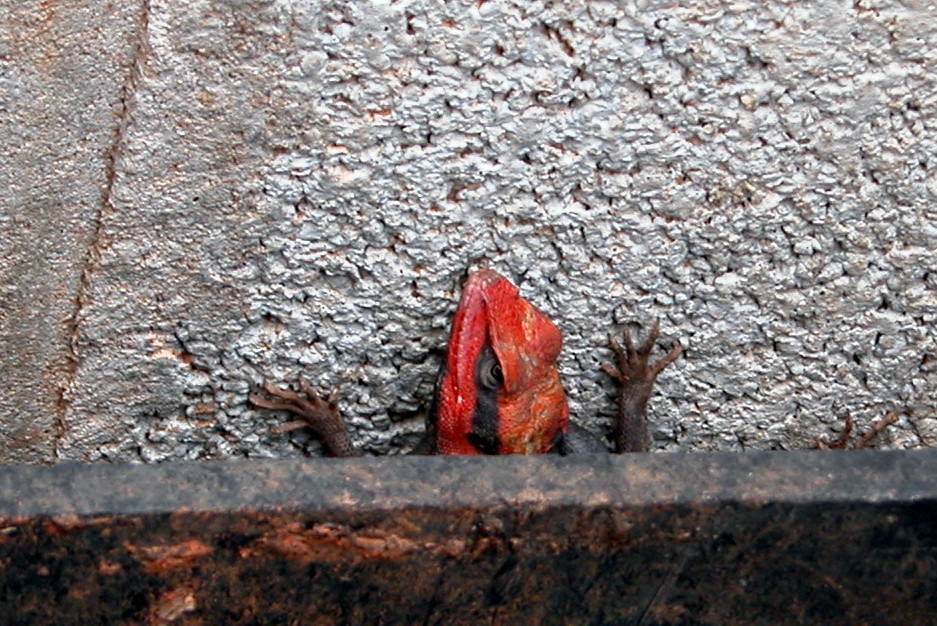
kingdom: Animalia
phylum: Chordata
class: Squamata
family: Agamidae
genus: Psammophilus
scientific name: Psammophilus dorsalis
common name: South indian rock agama
